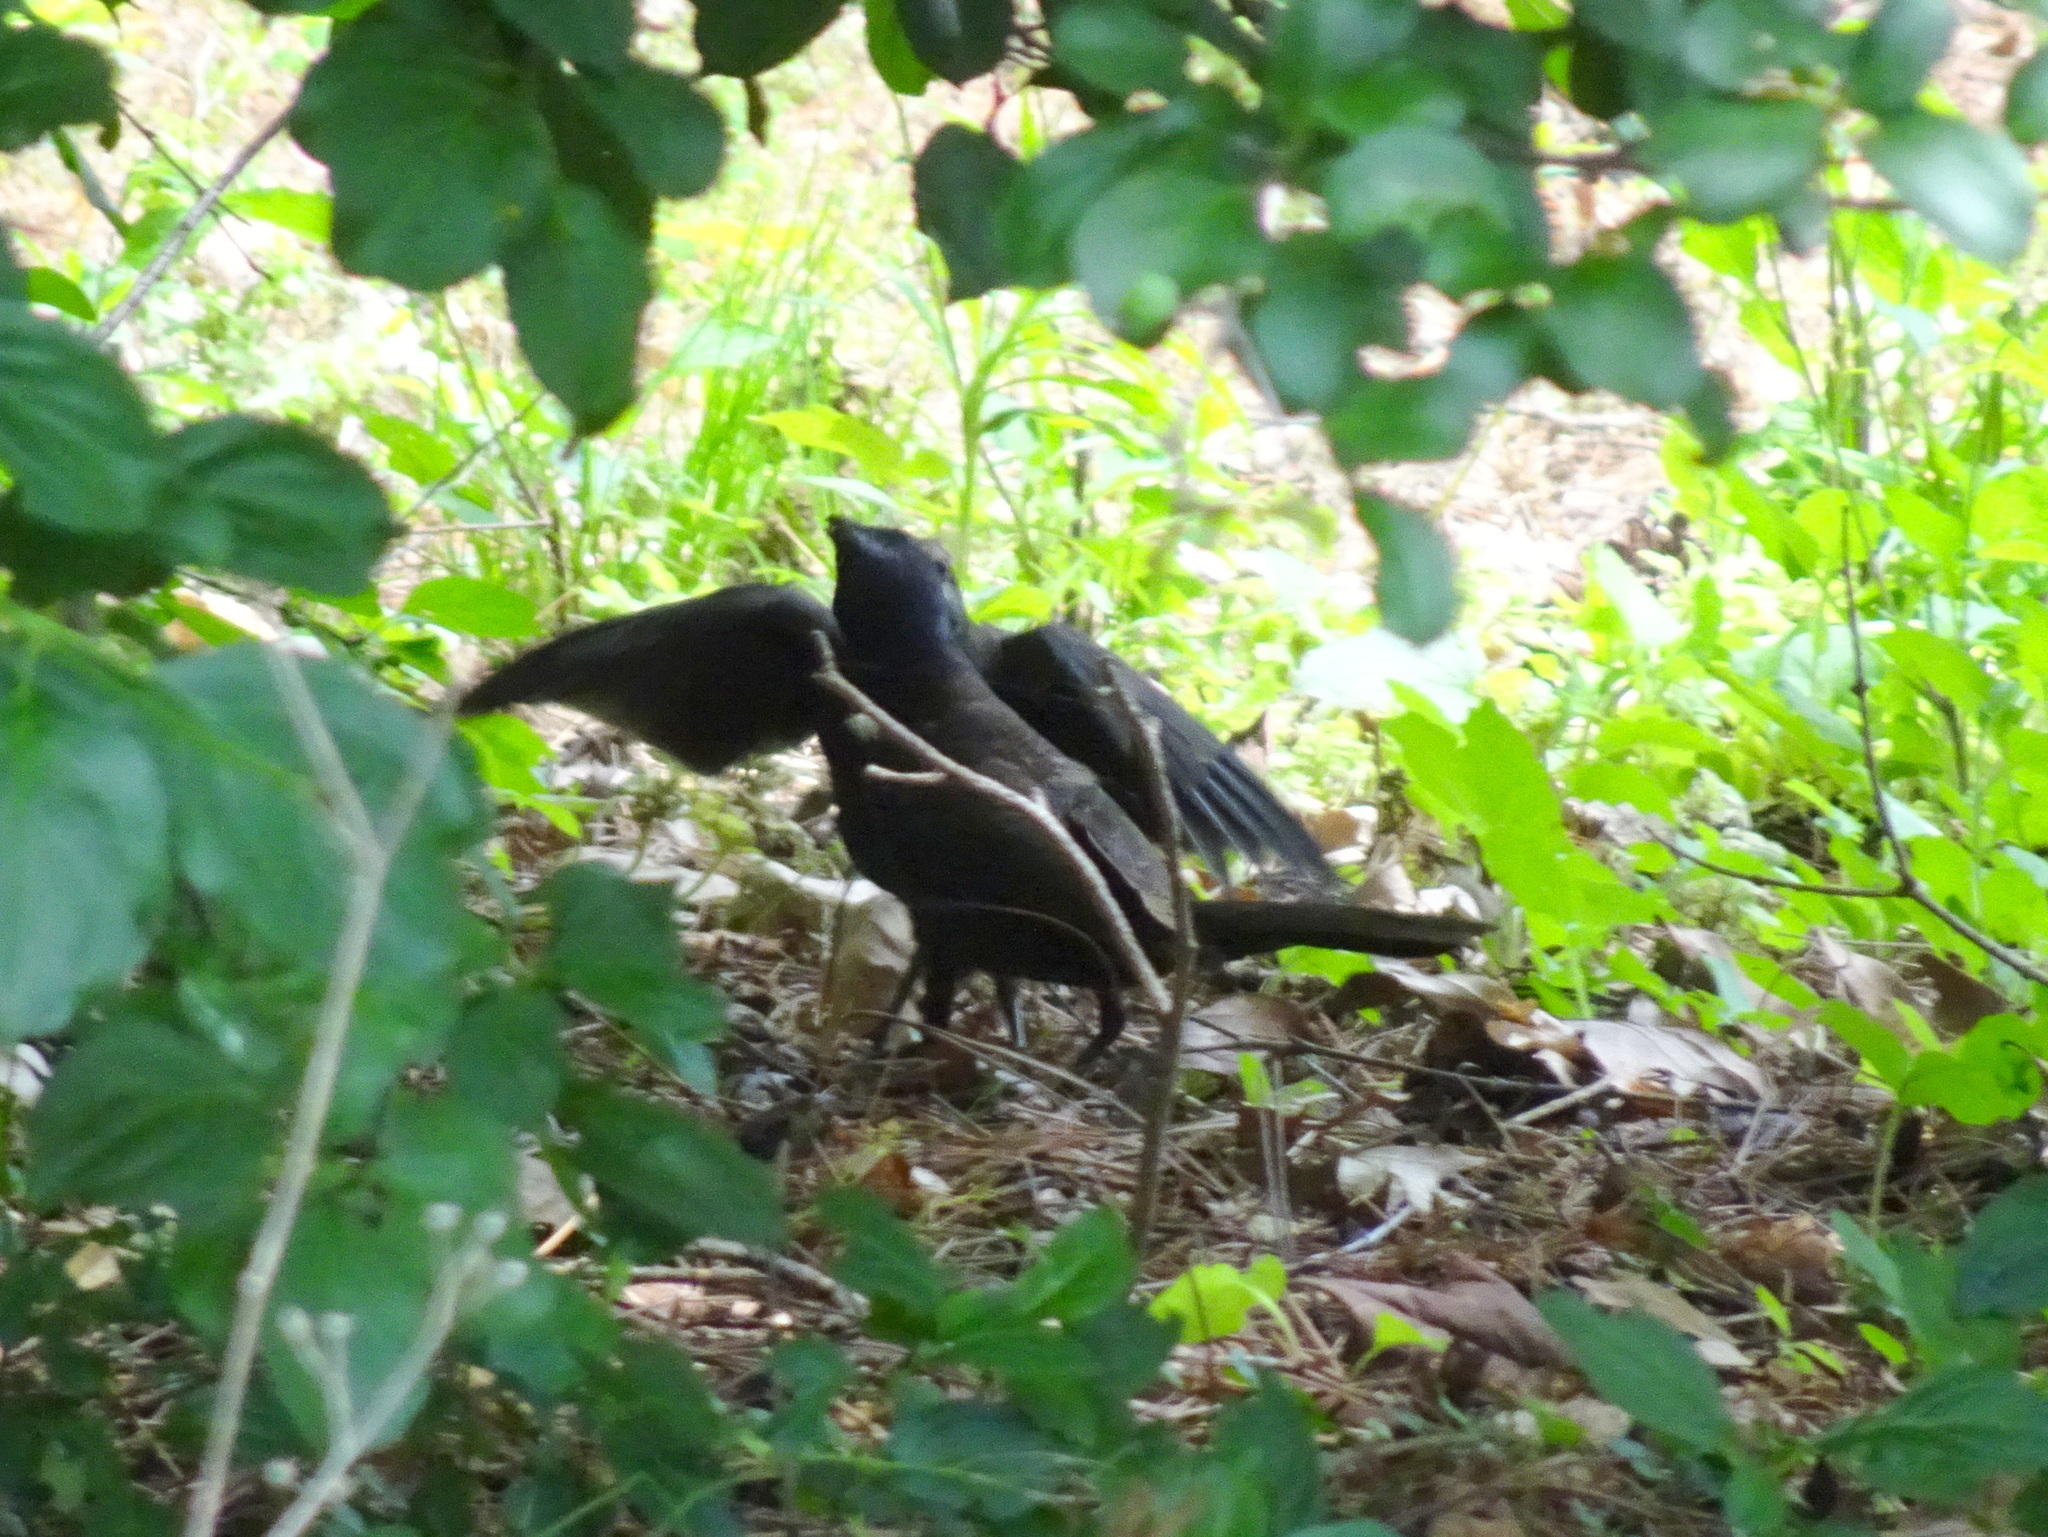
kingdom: Animalia
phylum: Chordata
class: Aves
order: Passeriformes
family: Icteridae
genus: Quiscalus
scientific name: Quiscalus quiscula
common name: Common grackle
